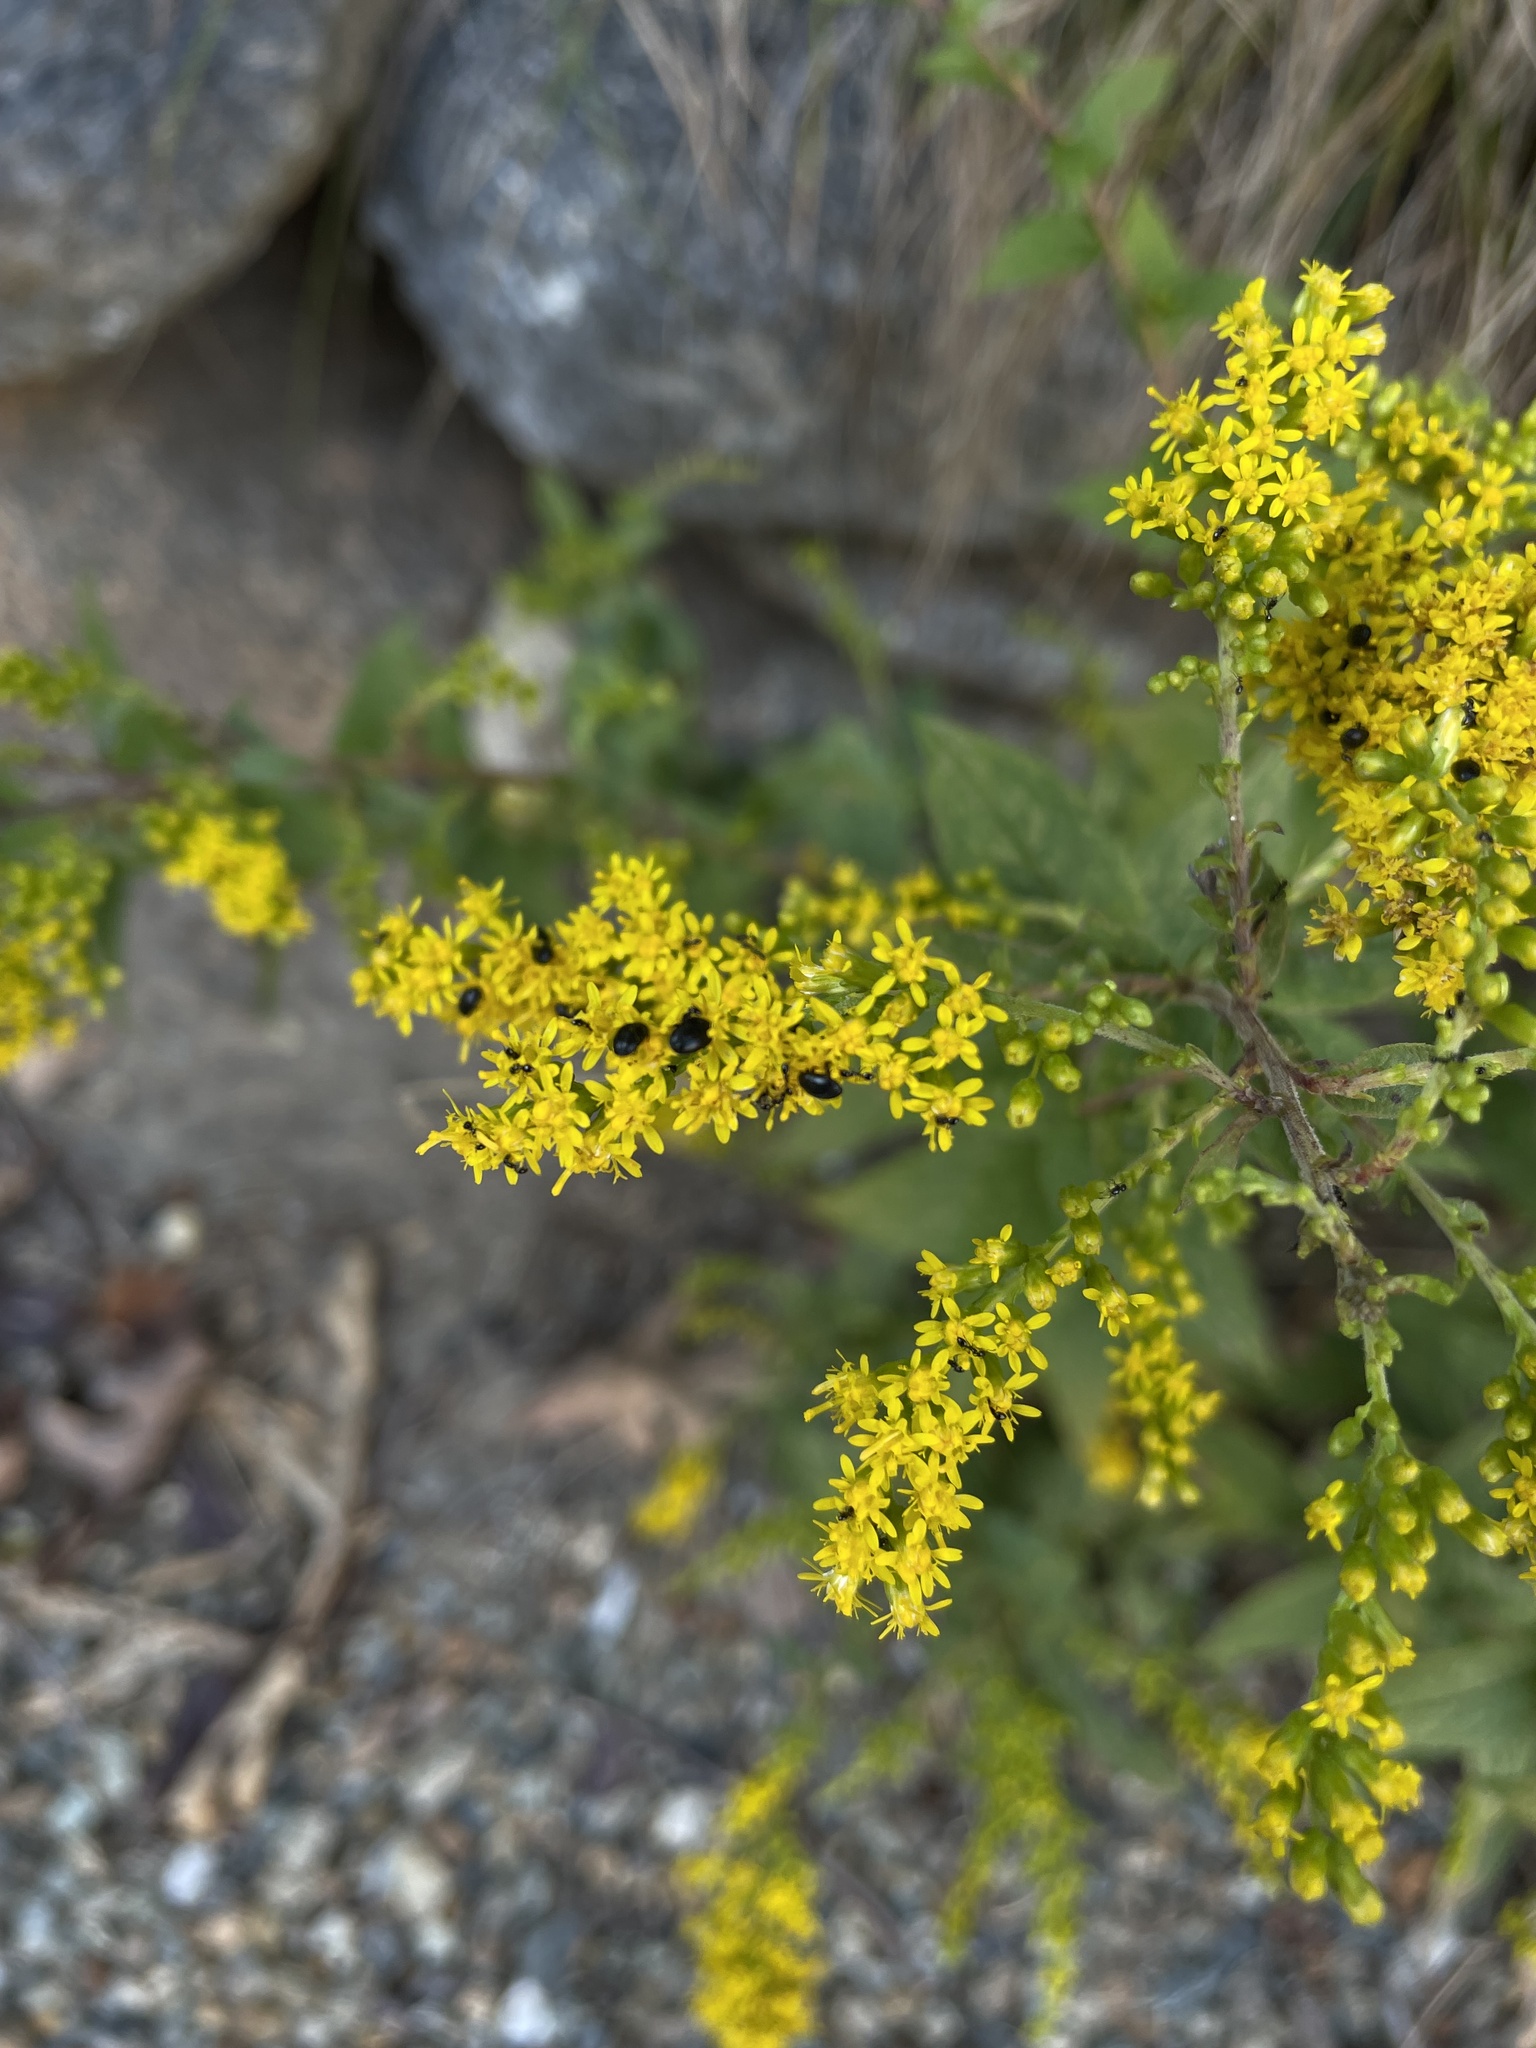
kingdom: Plantae
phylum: Tracheophyta
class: Magnoliopsida
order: Asterales
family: Asteraceae
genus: Solidago
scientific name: Solidago rugosa
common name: Rough-stemmed goldenrod
